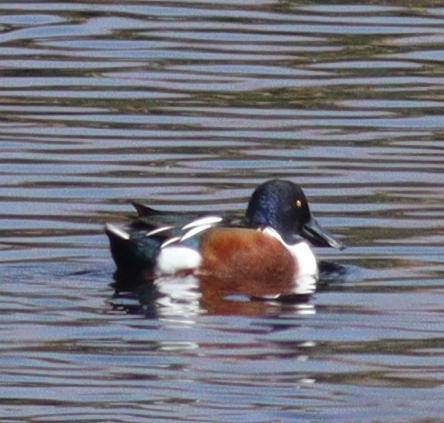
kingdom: Animalia
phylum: Chordata
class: Aves
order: Anseriformes
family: Anatidae
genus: Spatula
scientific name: Spatula clypeata
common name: Northern shoveler
